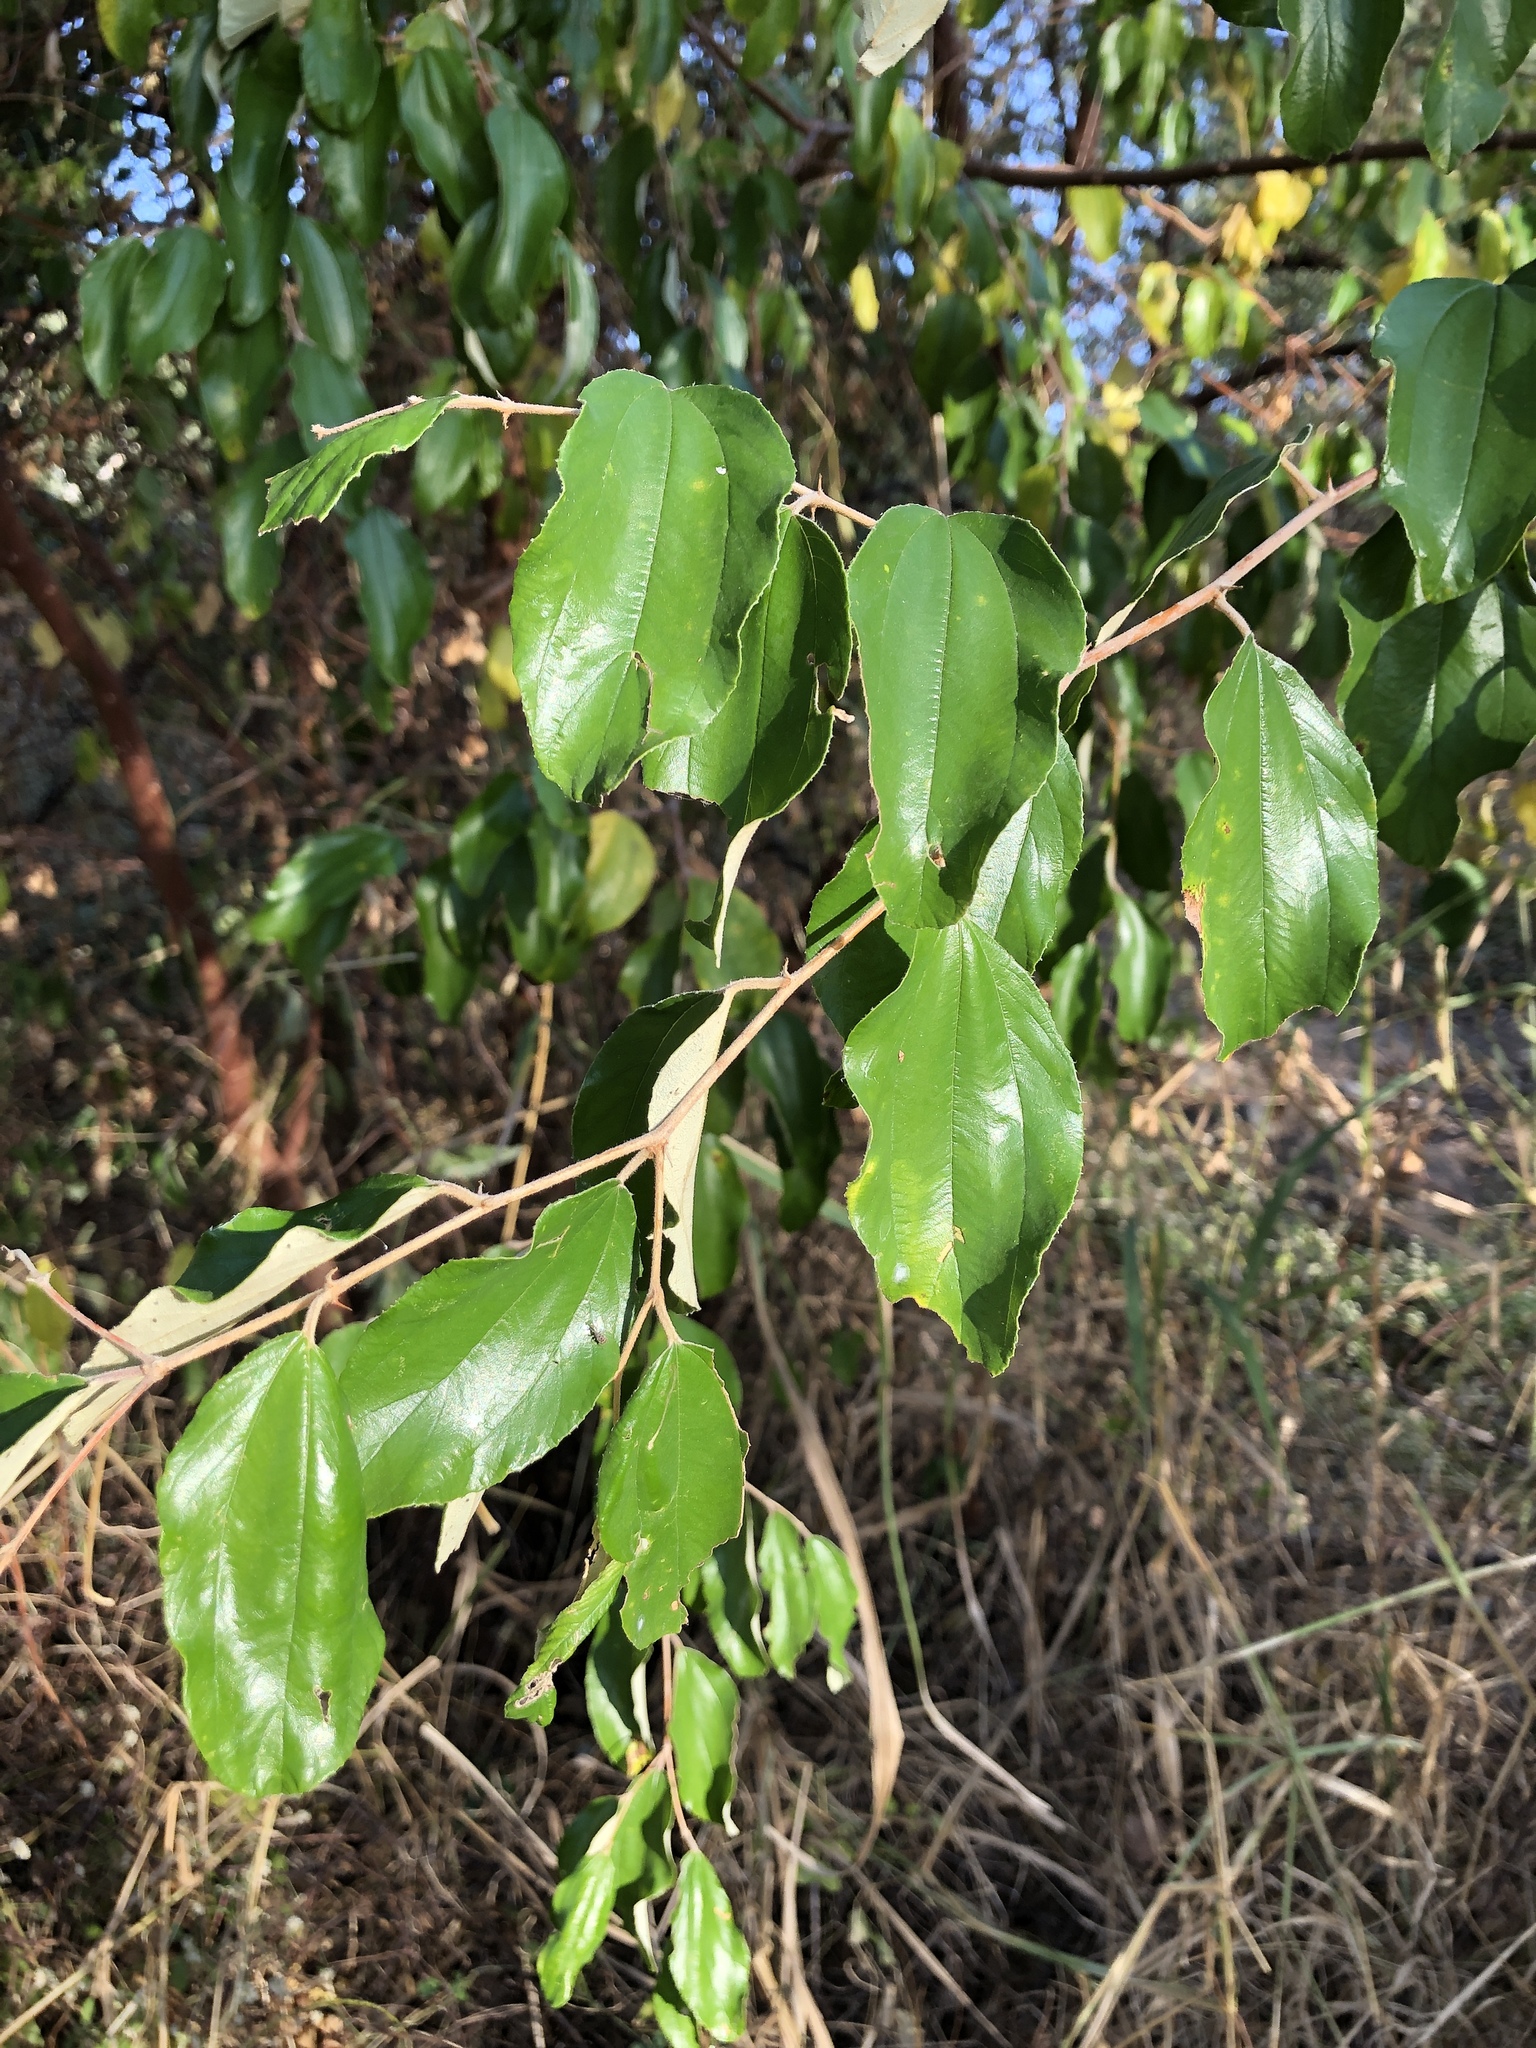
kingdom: Plantae
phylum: Tracheophyta
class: Magnoliopsida
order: Rosales
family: Rhamnaceae
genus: Ziziphus
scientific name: Ziziphus mauritiana
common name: Indian jujube
